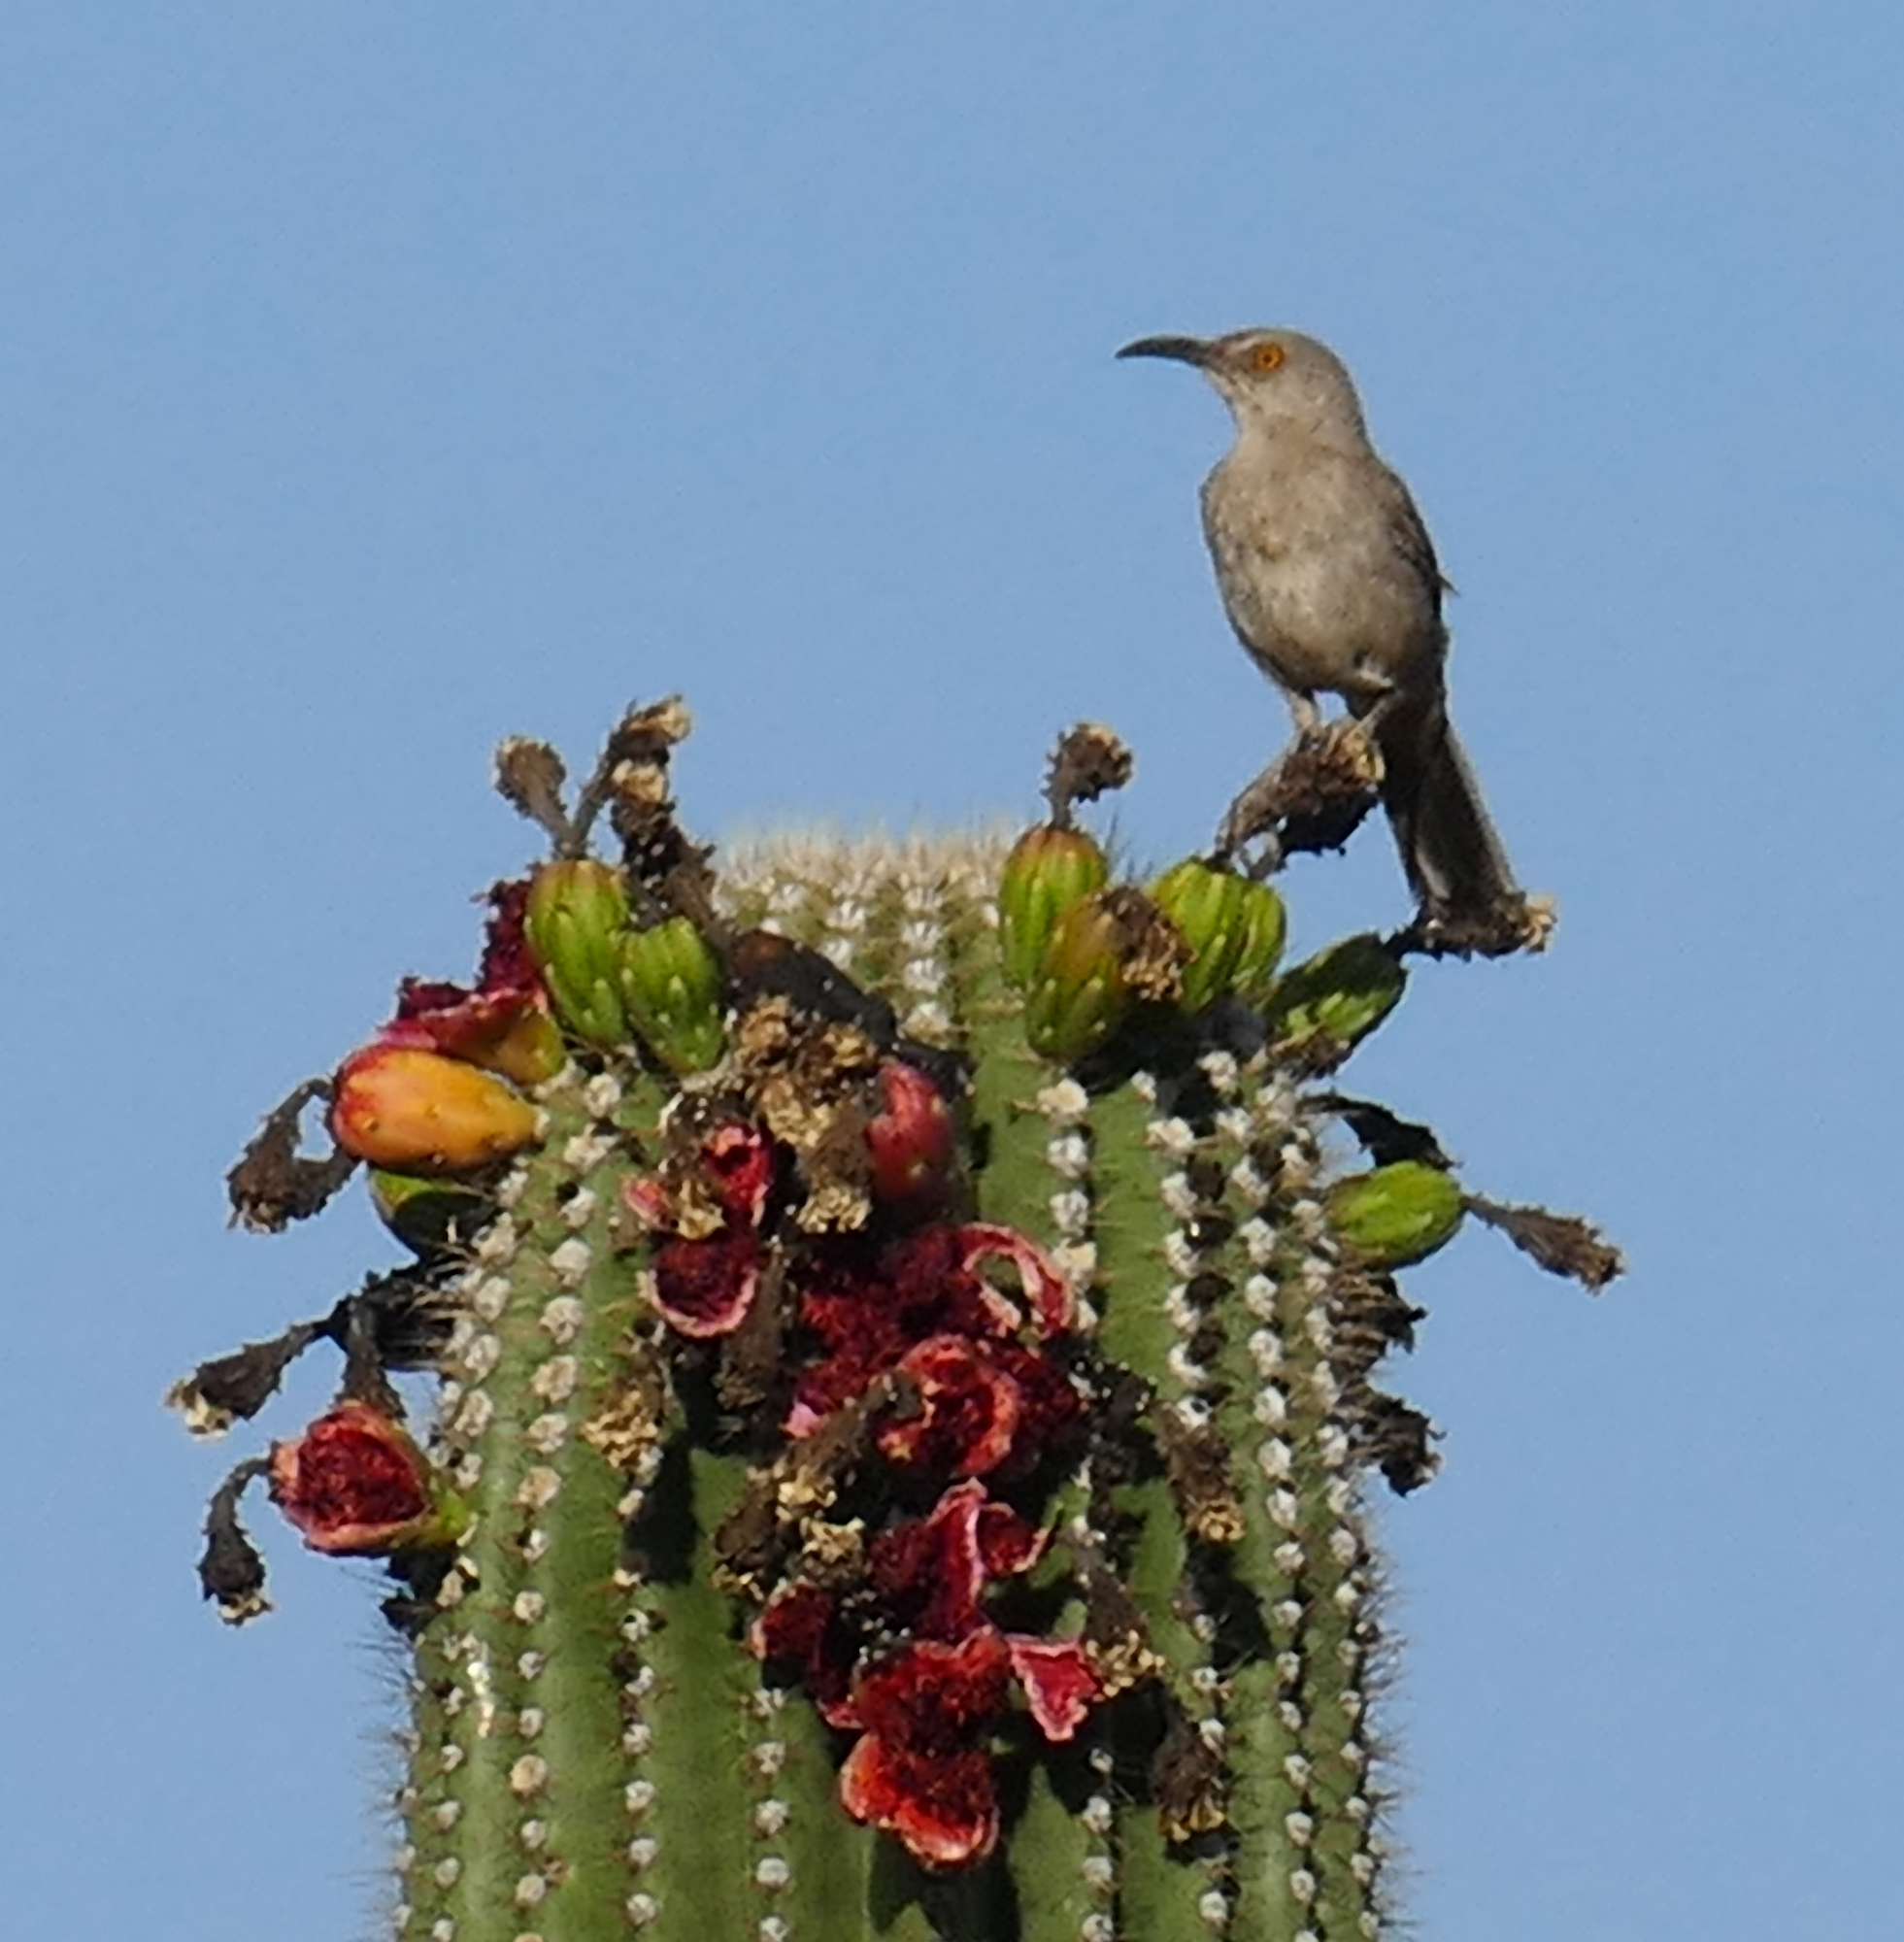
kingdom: Animalia
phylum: Chordata
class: Aves
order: Passeriformes
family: Mimidae
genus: Toxostoma
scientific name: Toxostoma curvirostre
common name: Curve-billed thrasher
